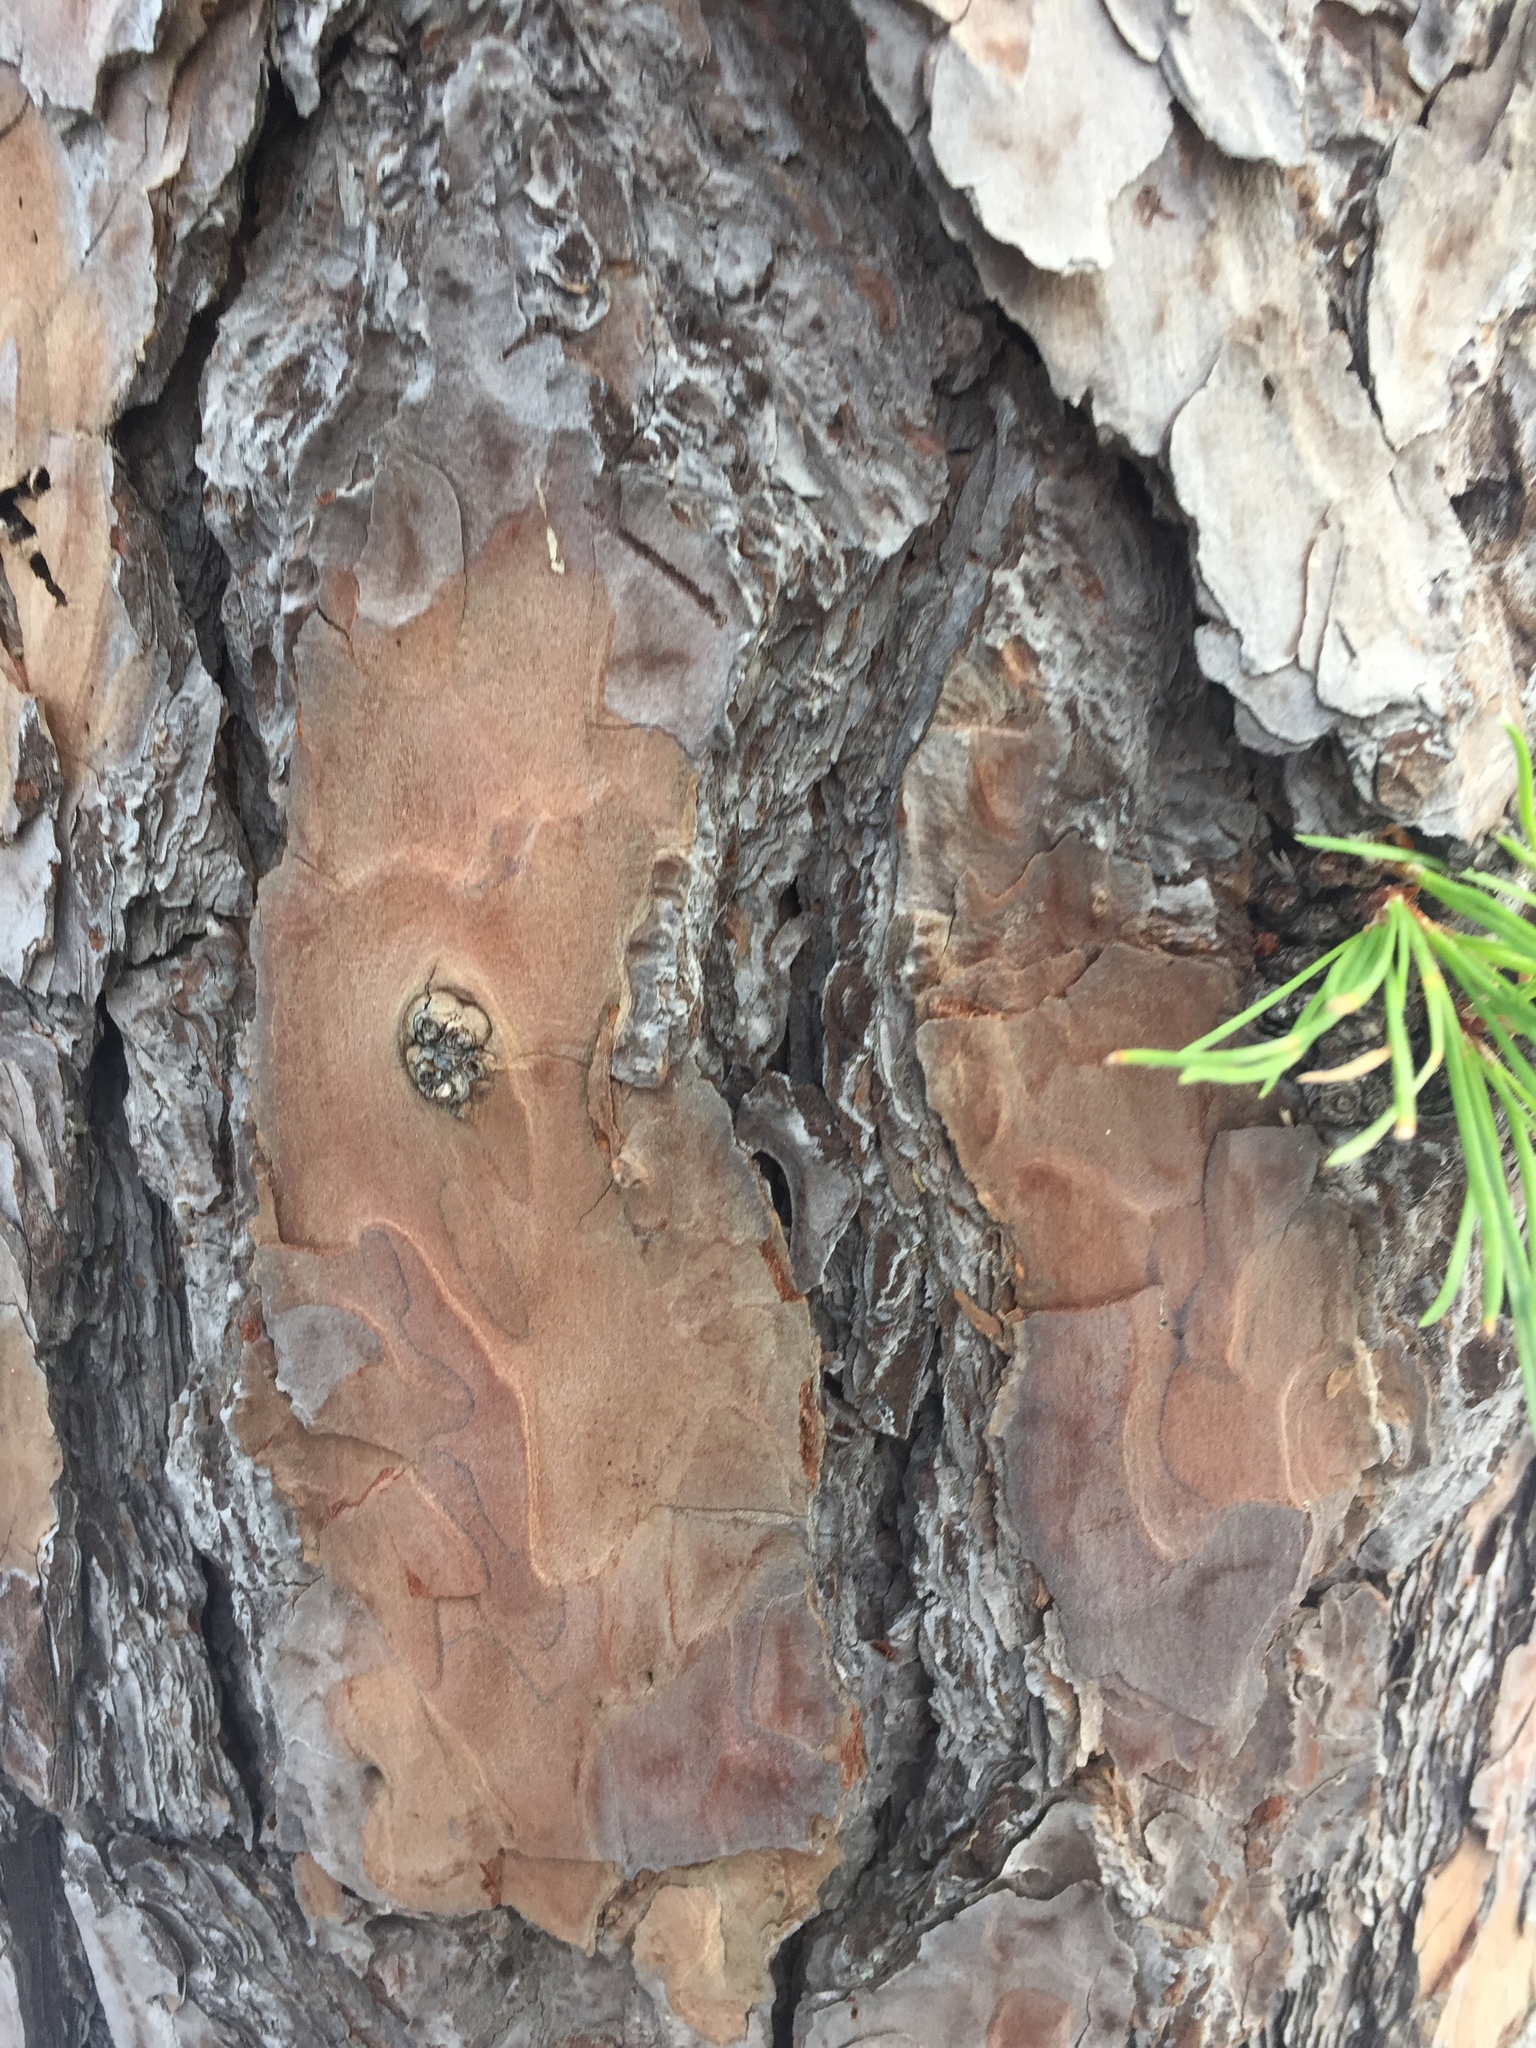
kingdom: Plantae
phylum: Tracheophyta
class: Pinopsida
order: Pinales
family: Pinaceae
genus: Pinus
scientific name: Pinus rigida
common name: Pitch pine
